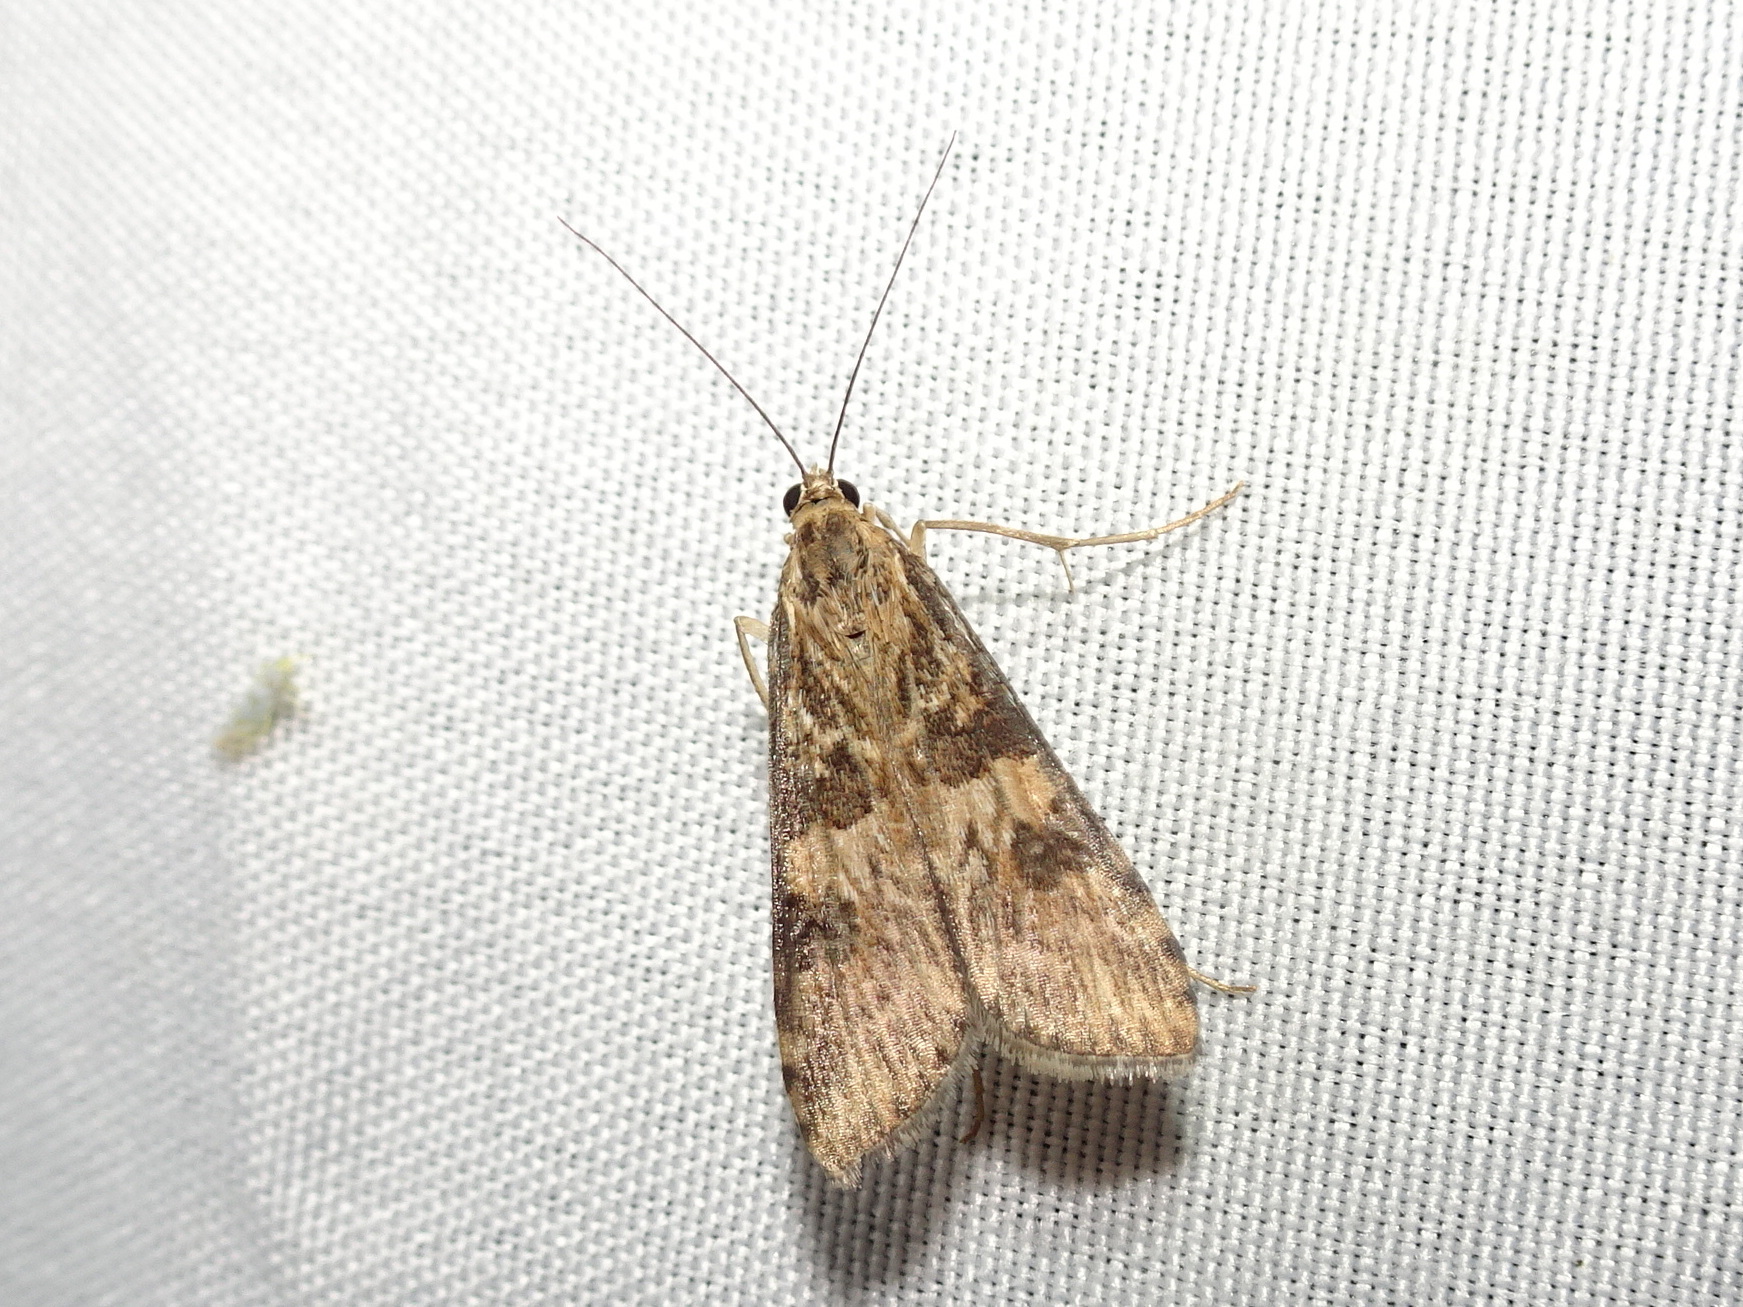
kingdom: Animalia
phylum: Arthropoda
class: Insecta
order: Lepidoptera
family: Crambidae
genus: Nomophila
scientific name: Nomophila nearctica
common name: American rush veneer
